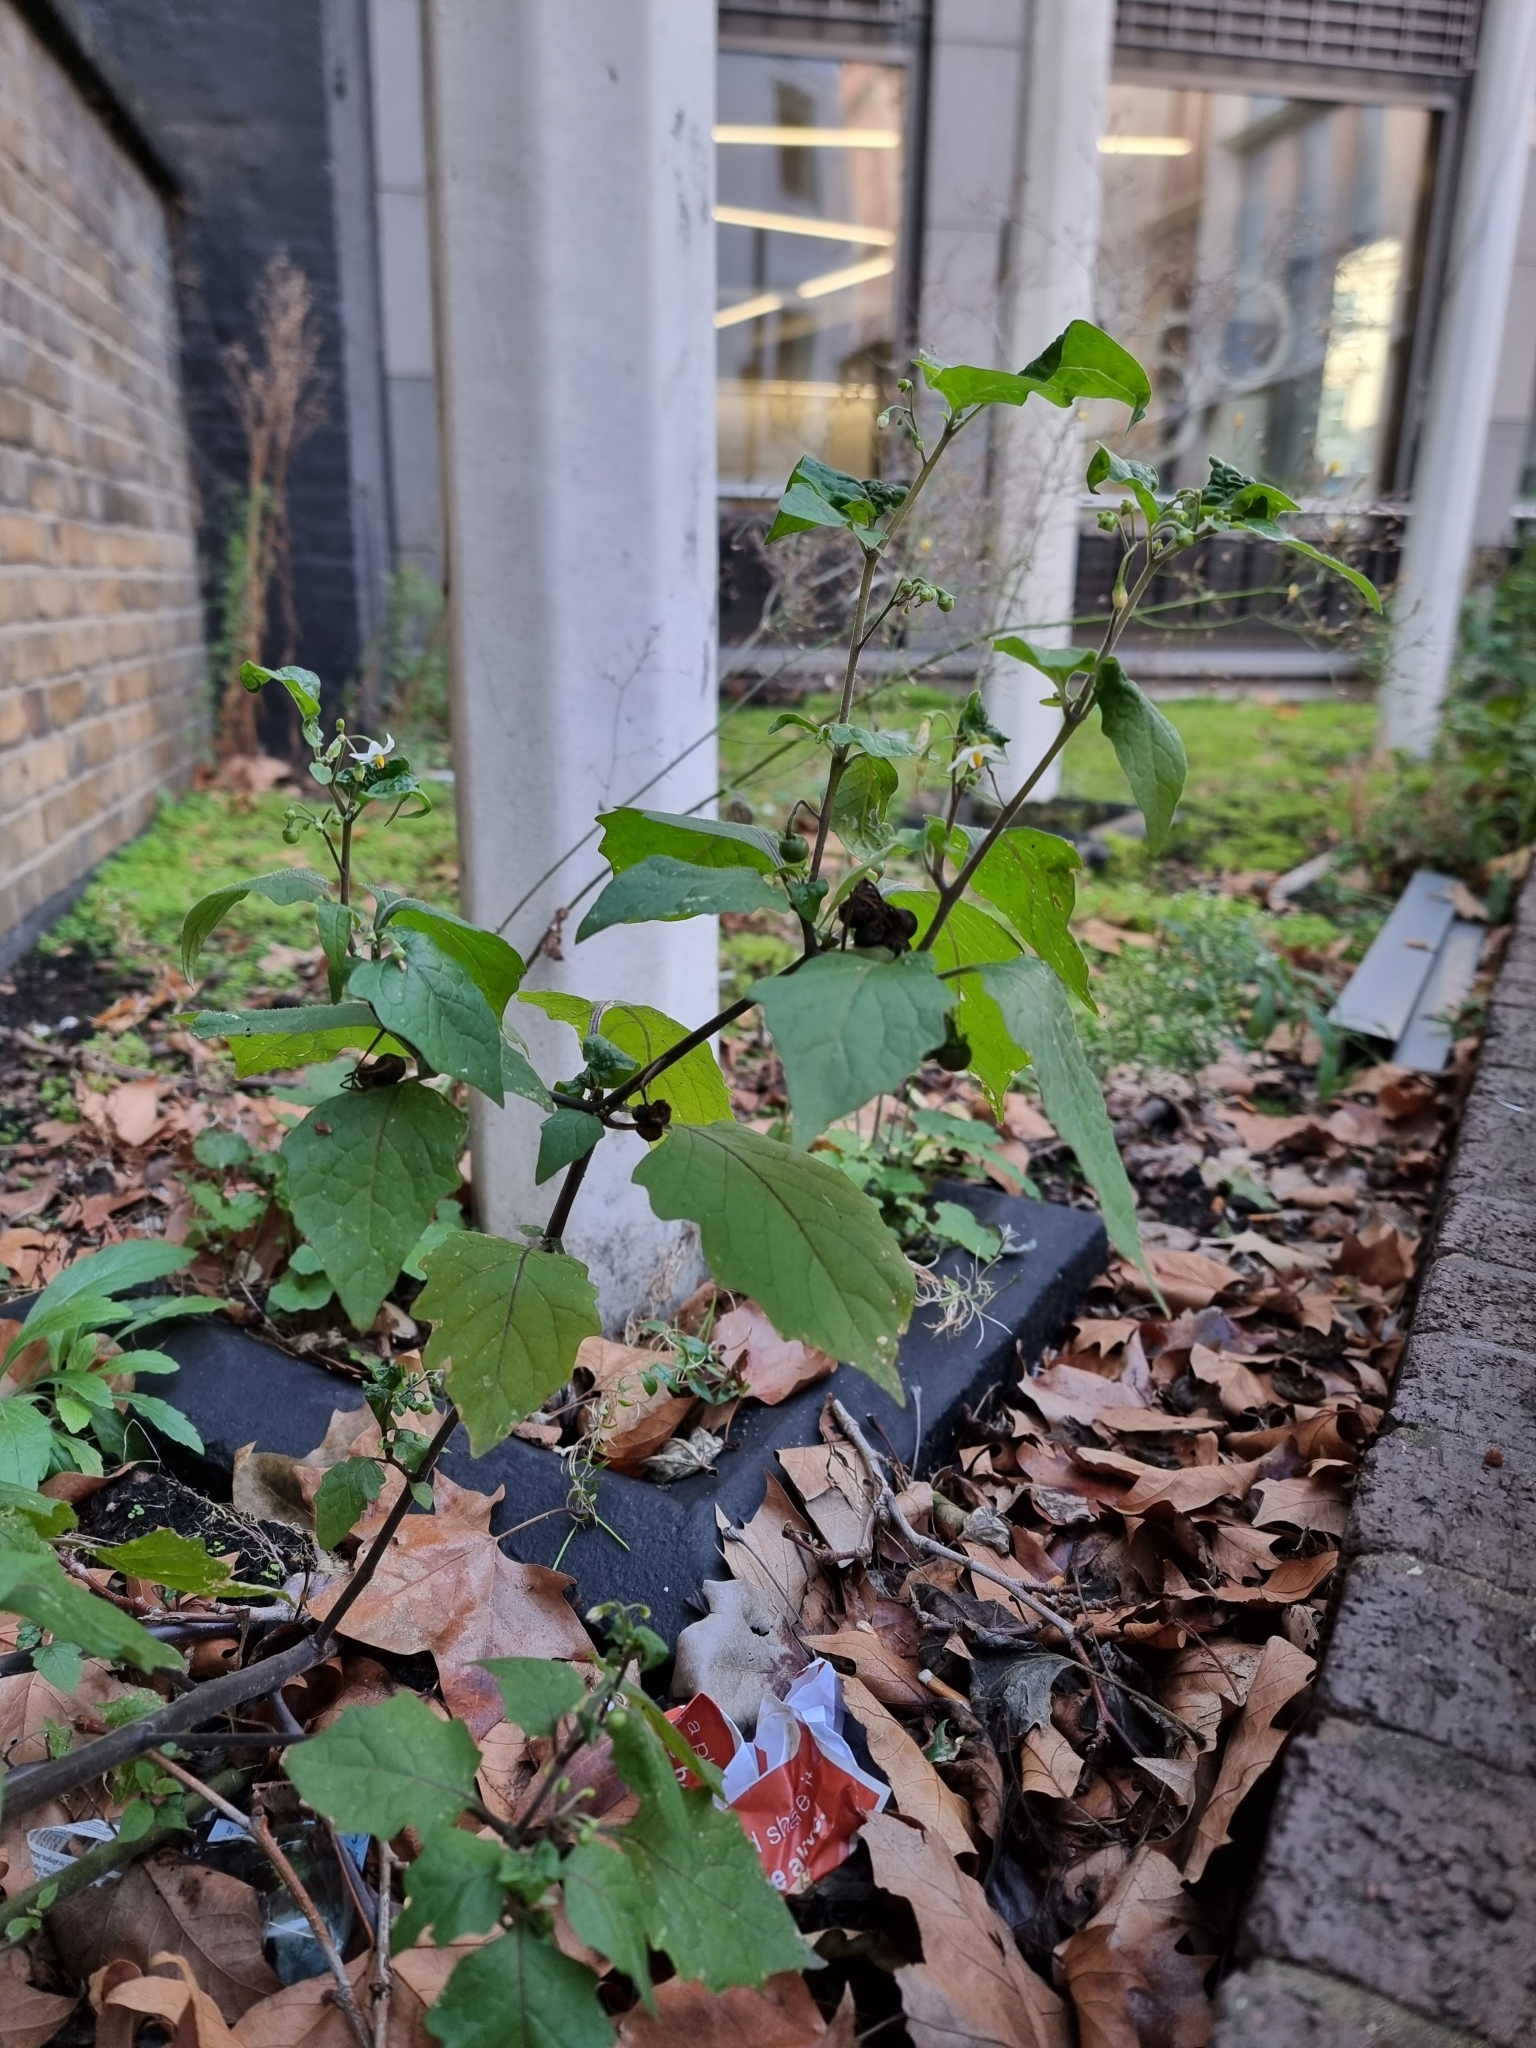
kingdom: Plantae
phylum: Tracheophyta
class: Magnoliopsida
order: Solanales
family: Solanaceae
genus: Solanum
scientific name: Solanum nigrum
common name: Black nightshade
